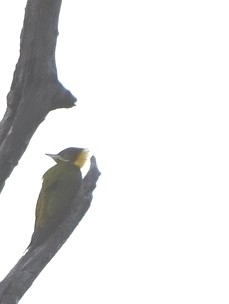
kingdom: Animalia
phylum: Chordata
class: Aves
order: Piciformes
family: Picidae
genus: Picus
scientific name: Picus chlorolophus
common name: Lesser yellownape
